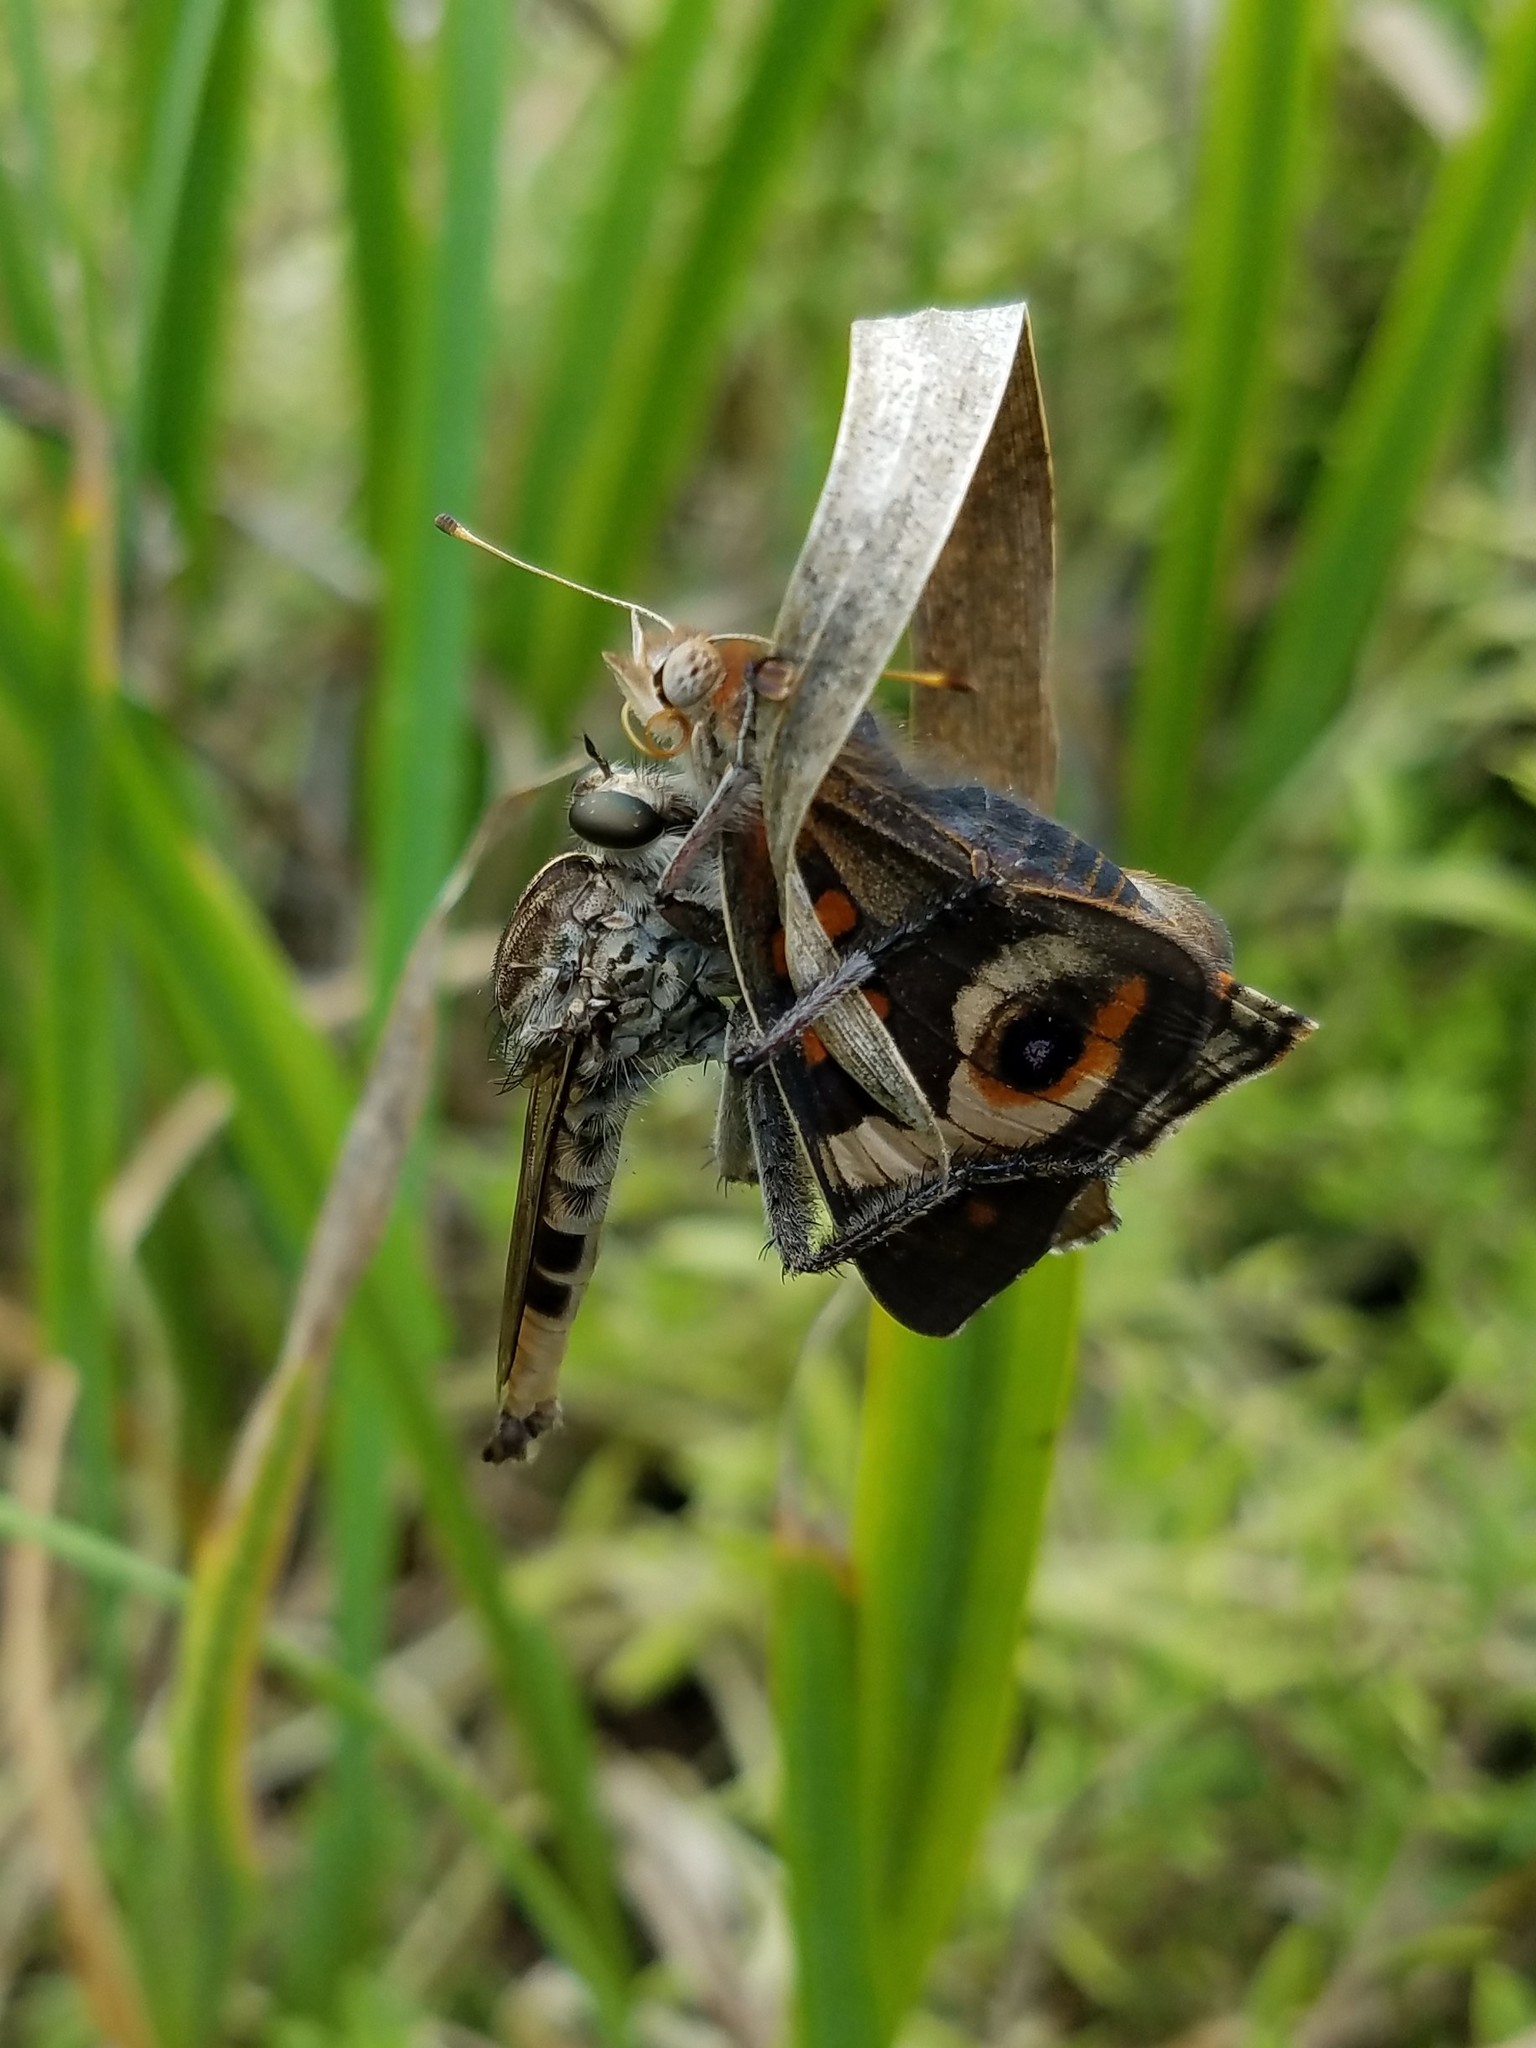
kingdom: Animalia
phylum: Arthropoda
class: Insecta
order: Diptera
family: Asilidae
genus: Triorla
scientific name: Triorla interrupta
